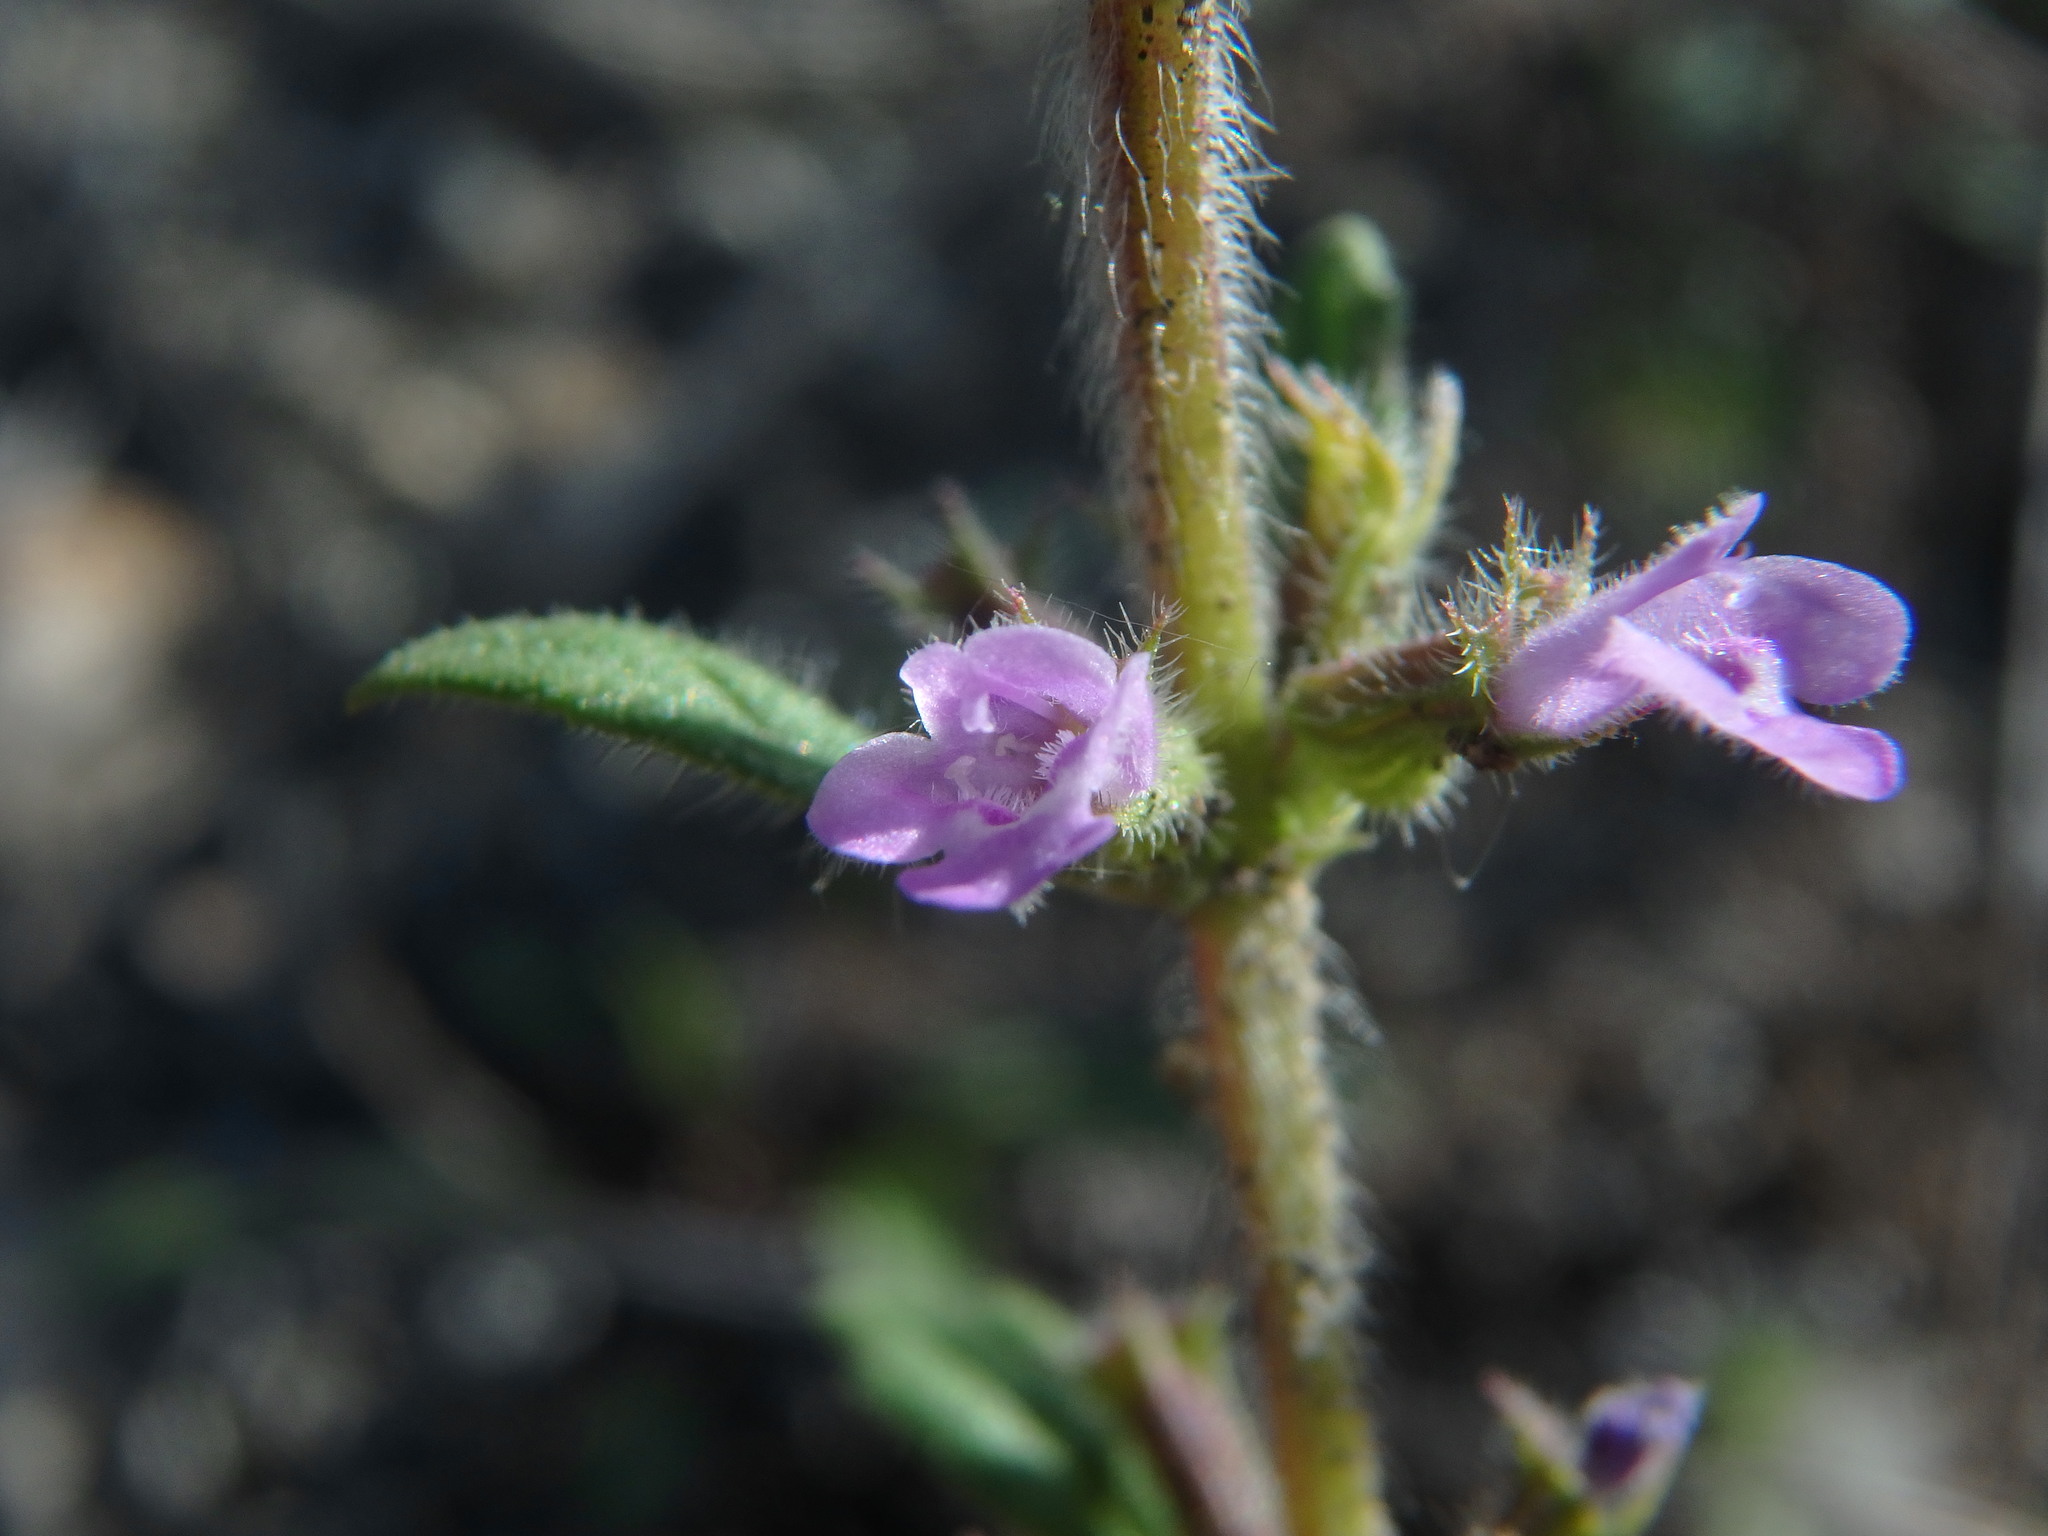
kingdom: Plantae
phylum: Tracheophyta
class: Magnoliopsida
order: Lamiales
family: Lamiaceae
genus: Clinopodium
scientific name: Clinopodium acinos
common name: Basil thyme
